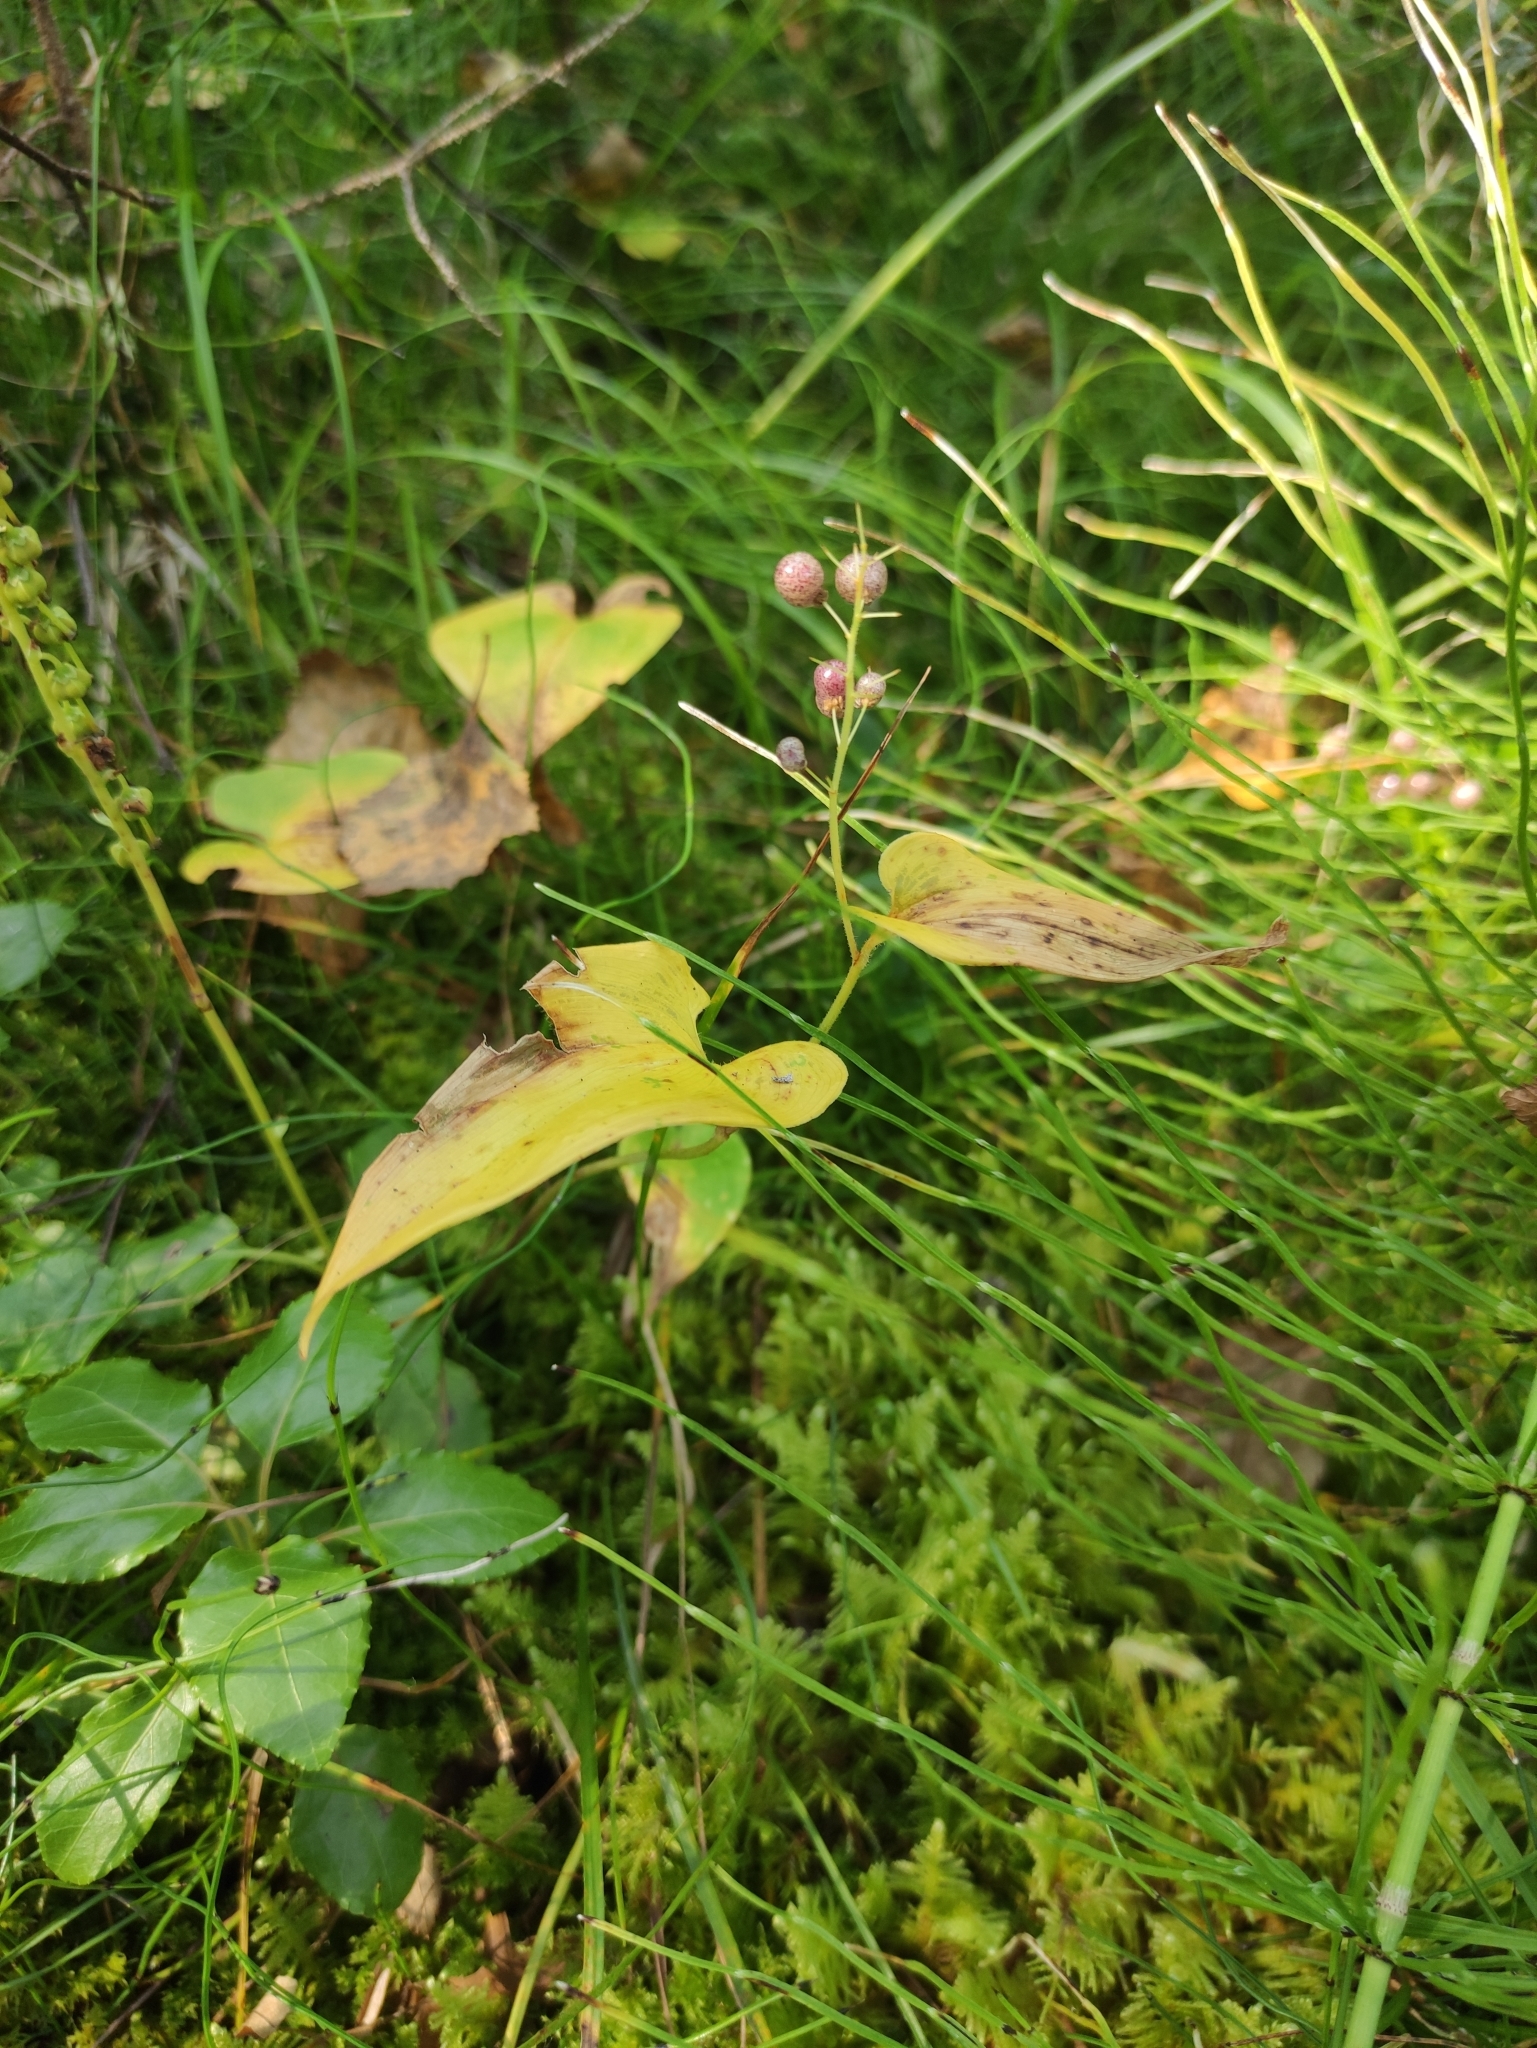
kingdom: Plantae
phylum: Tracheophyta
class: Liliopsida
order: Asparagales
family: Asparagaceae
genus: Maianthemum
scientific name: Maianthemum bifolium
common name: May lily
